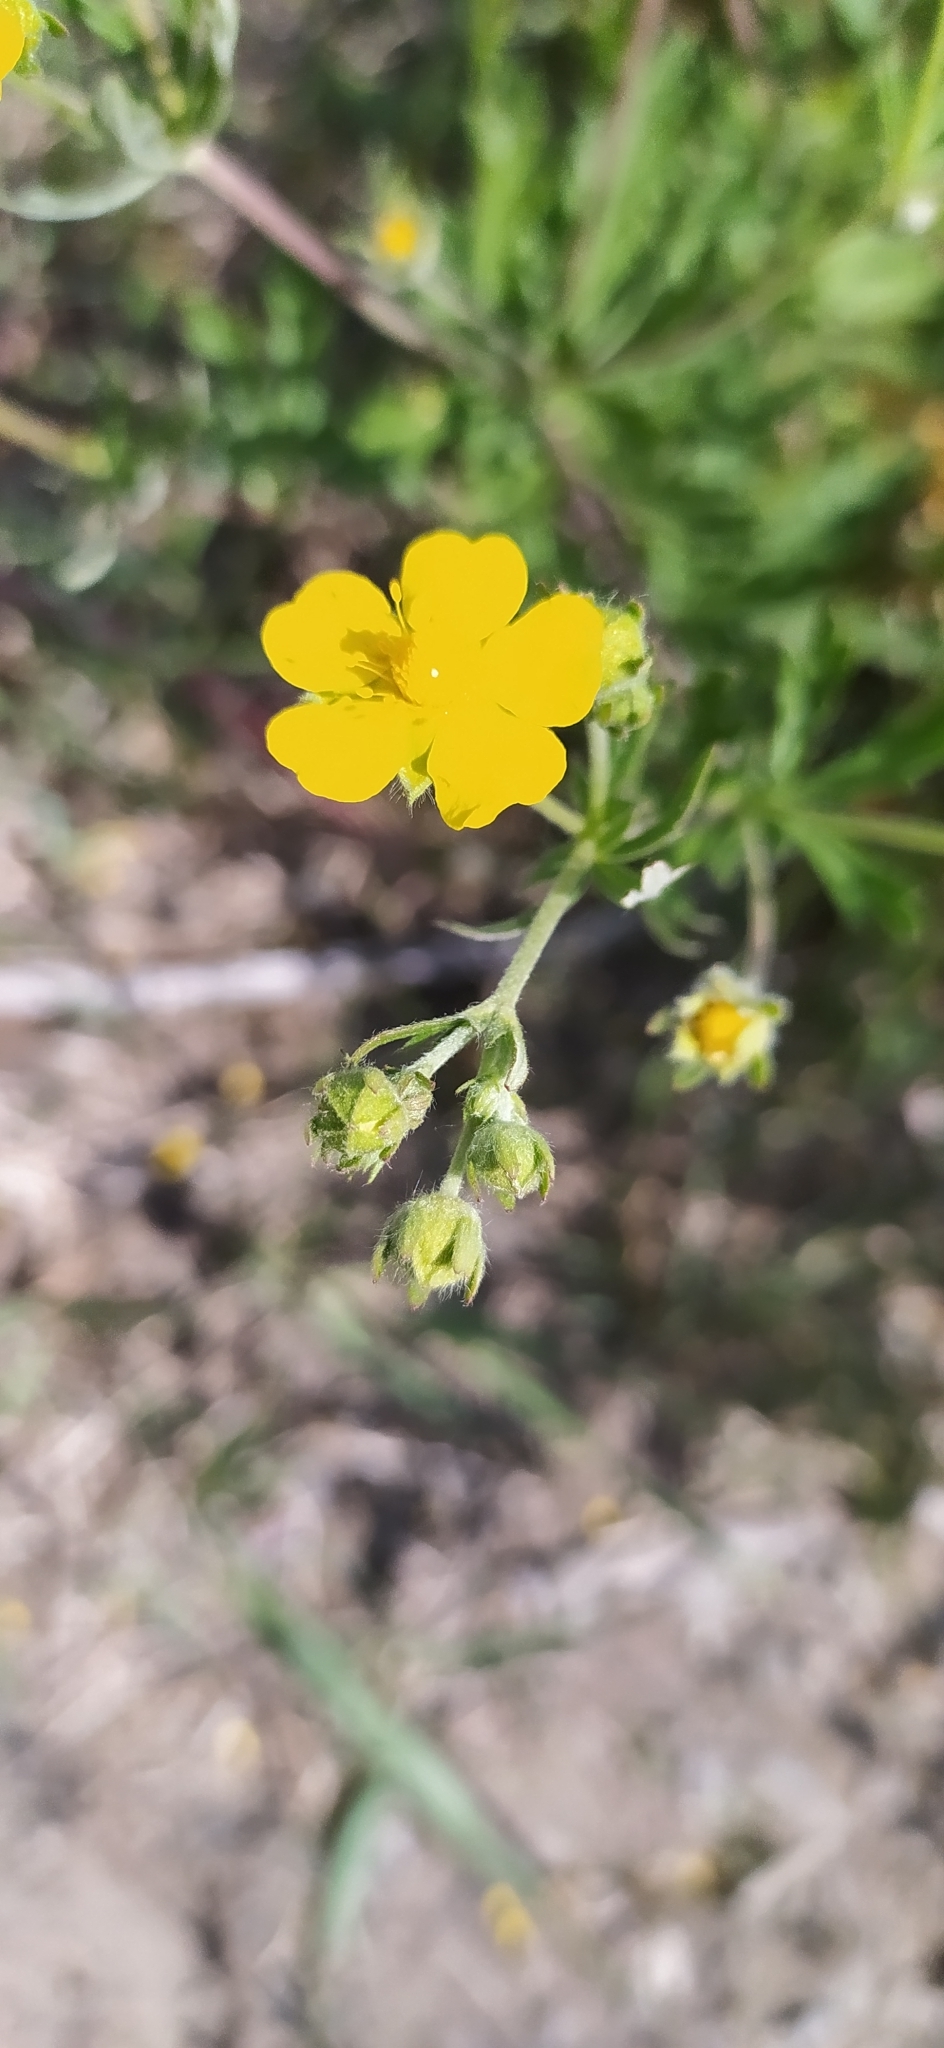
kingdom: Plantae
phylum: Tracheophyta
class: Magnoliopsida
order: Rosales
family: Rosaceae
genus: Potentilla
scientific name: Potentilla thuringiaca
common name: European cinquefoil
